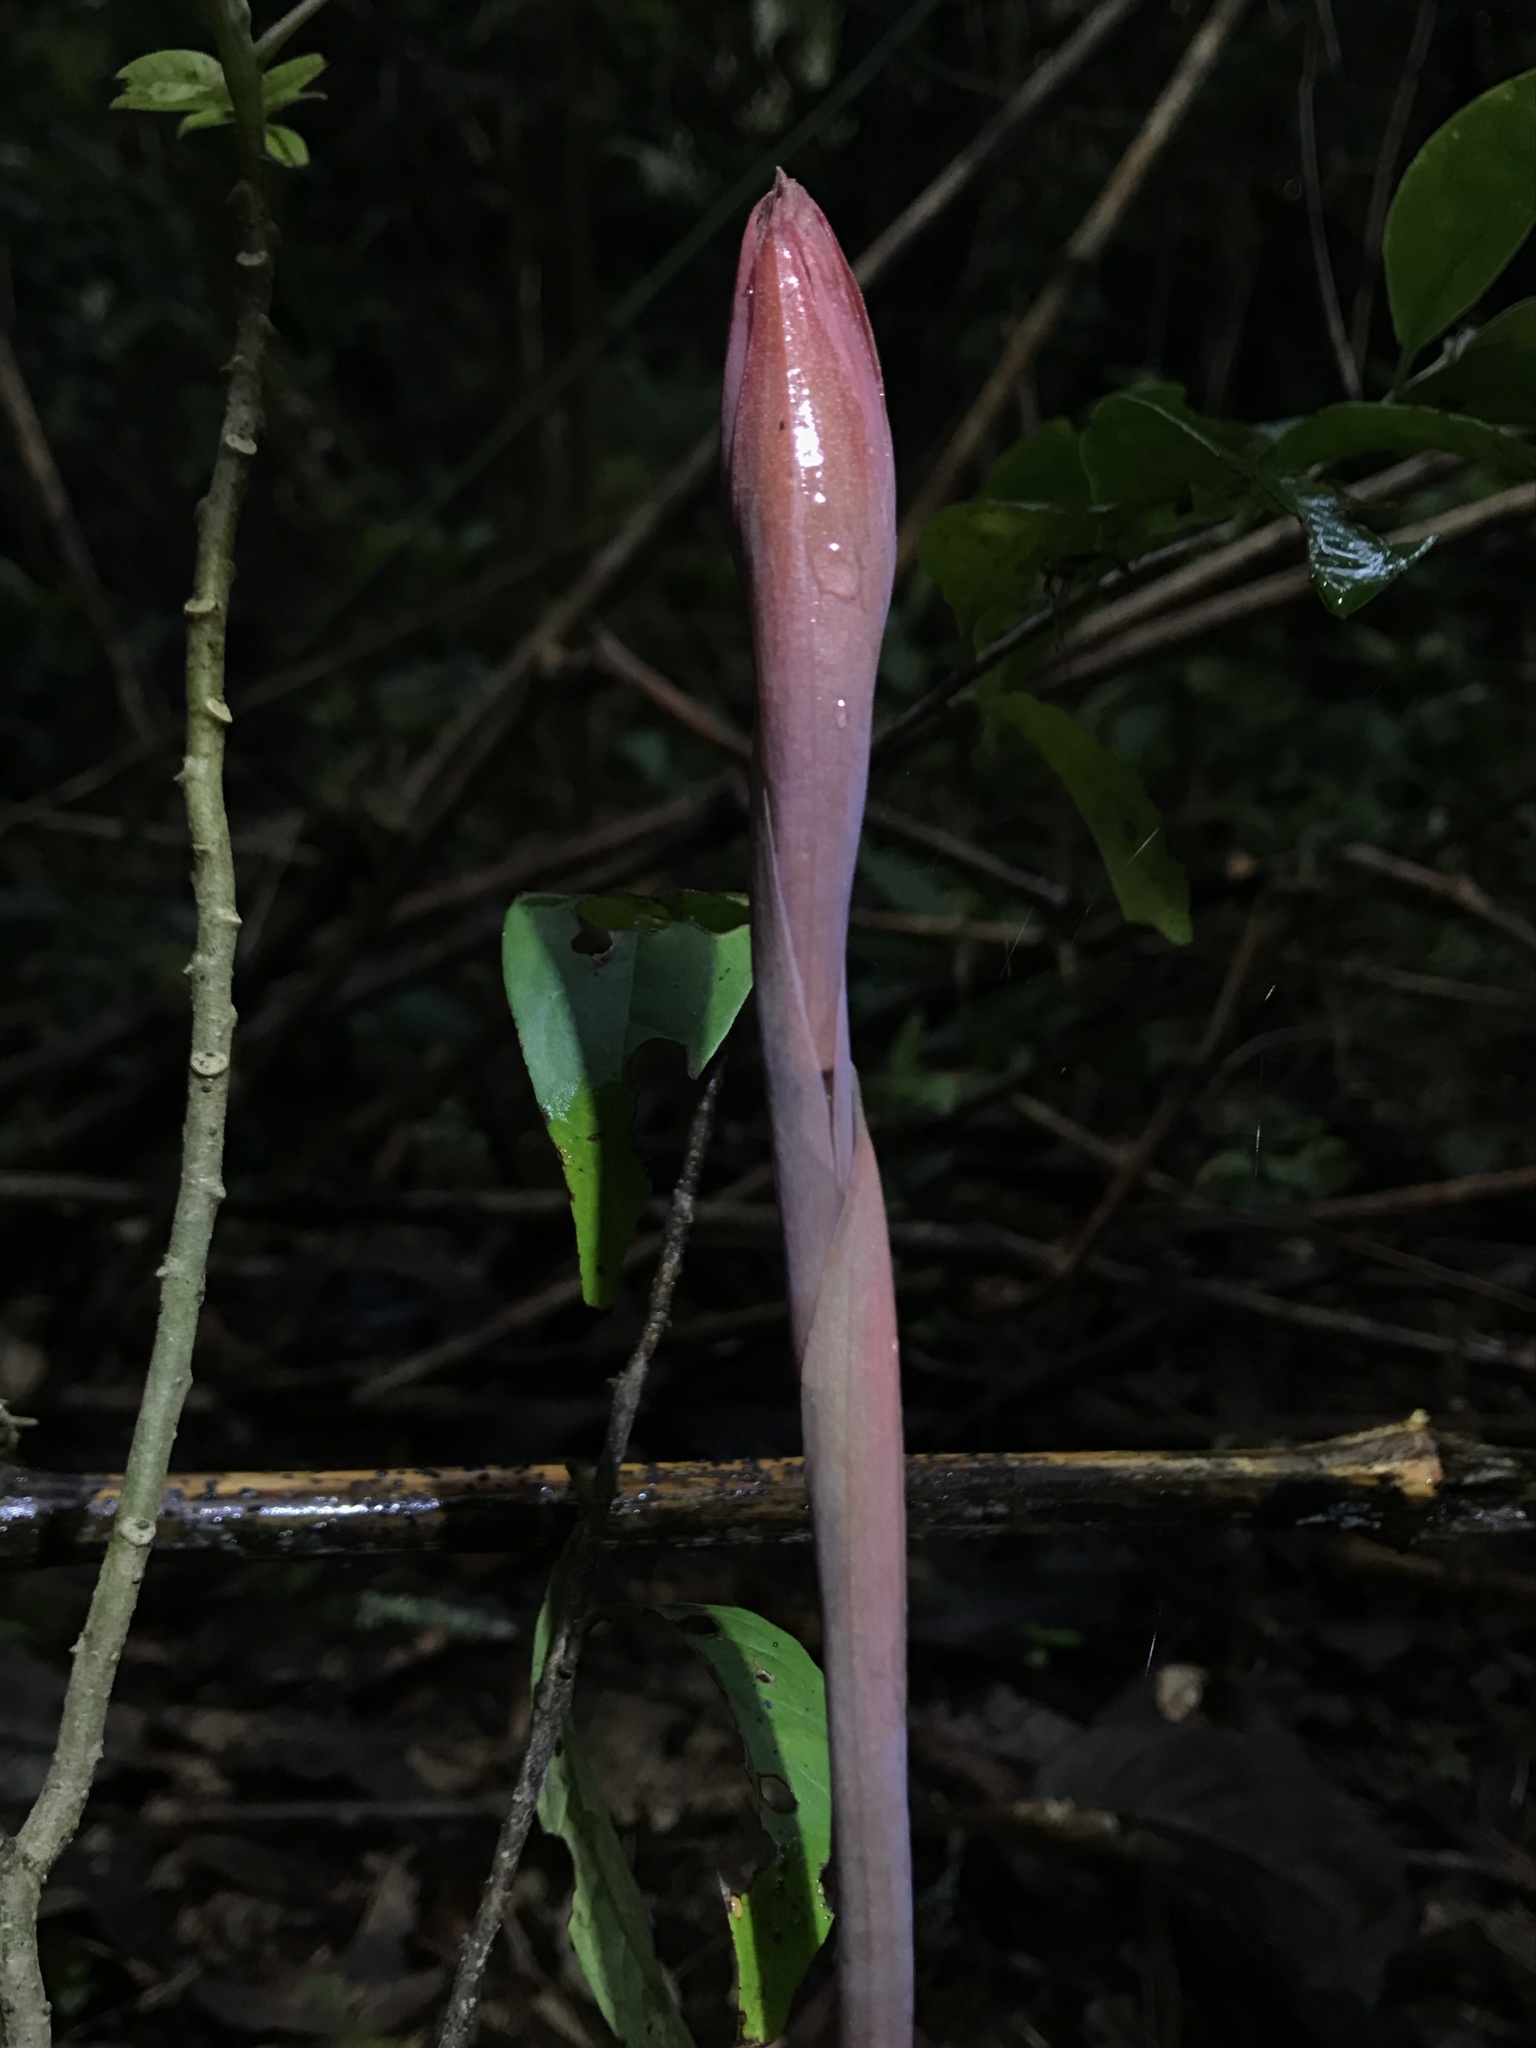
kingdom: Plantae
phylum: Tracheophyta
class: Liliopsida
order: Asparagales
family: Orchidaceae
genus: Stenorrhynchos
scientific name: Stenorrhynchos albidomaculatum
